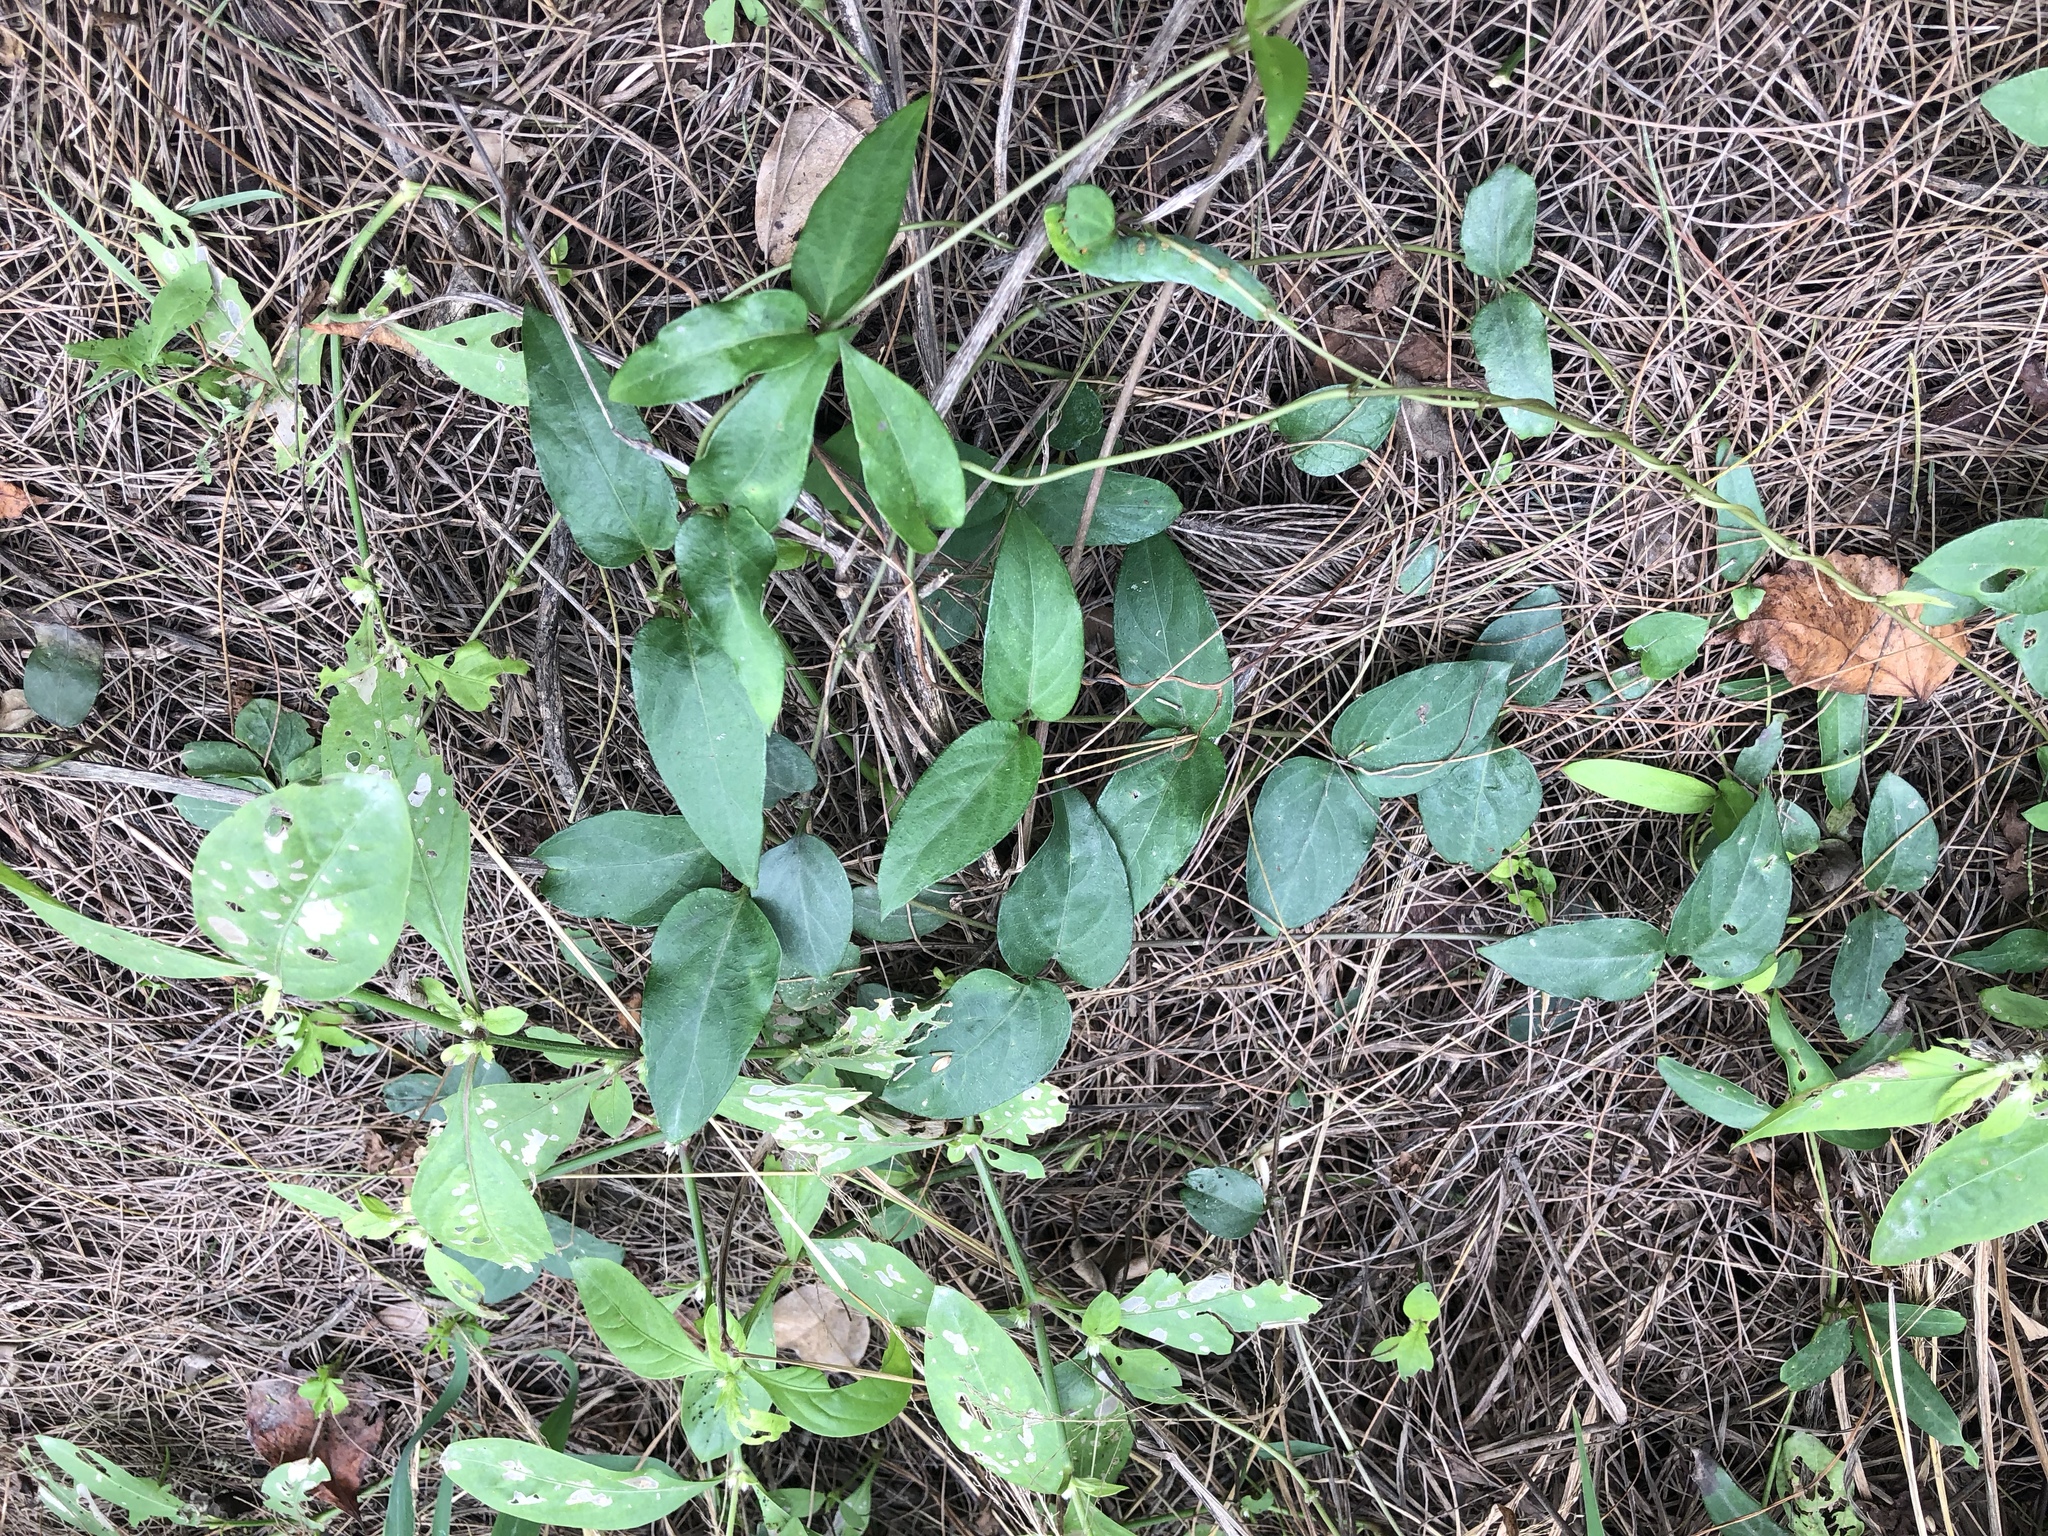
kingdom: Plantae
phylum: Tracheophyta
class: Magnoliopsida
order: Gentianales
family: Rubiaceae
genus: Paederia
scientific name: Paederia foetida
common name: Stinkvine
